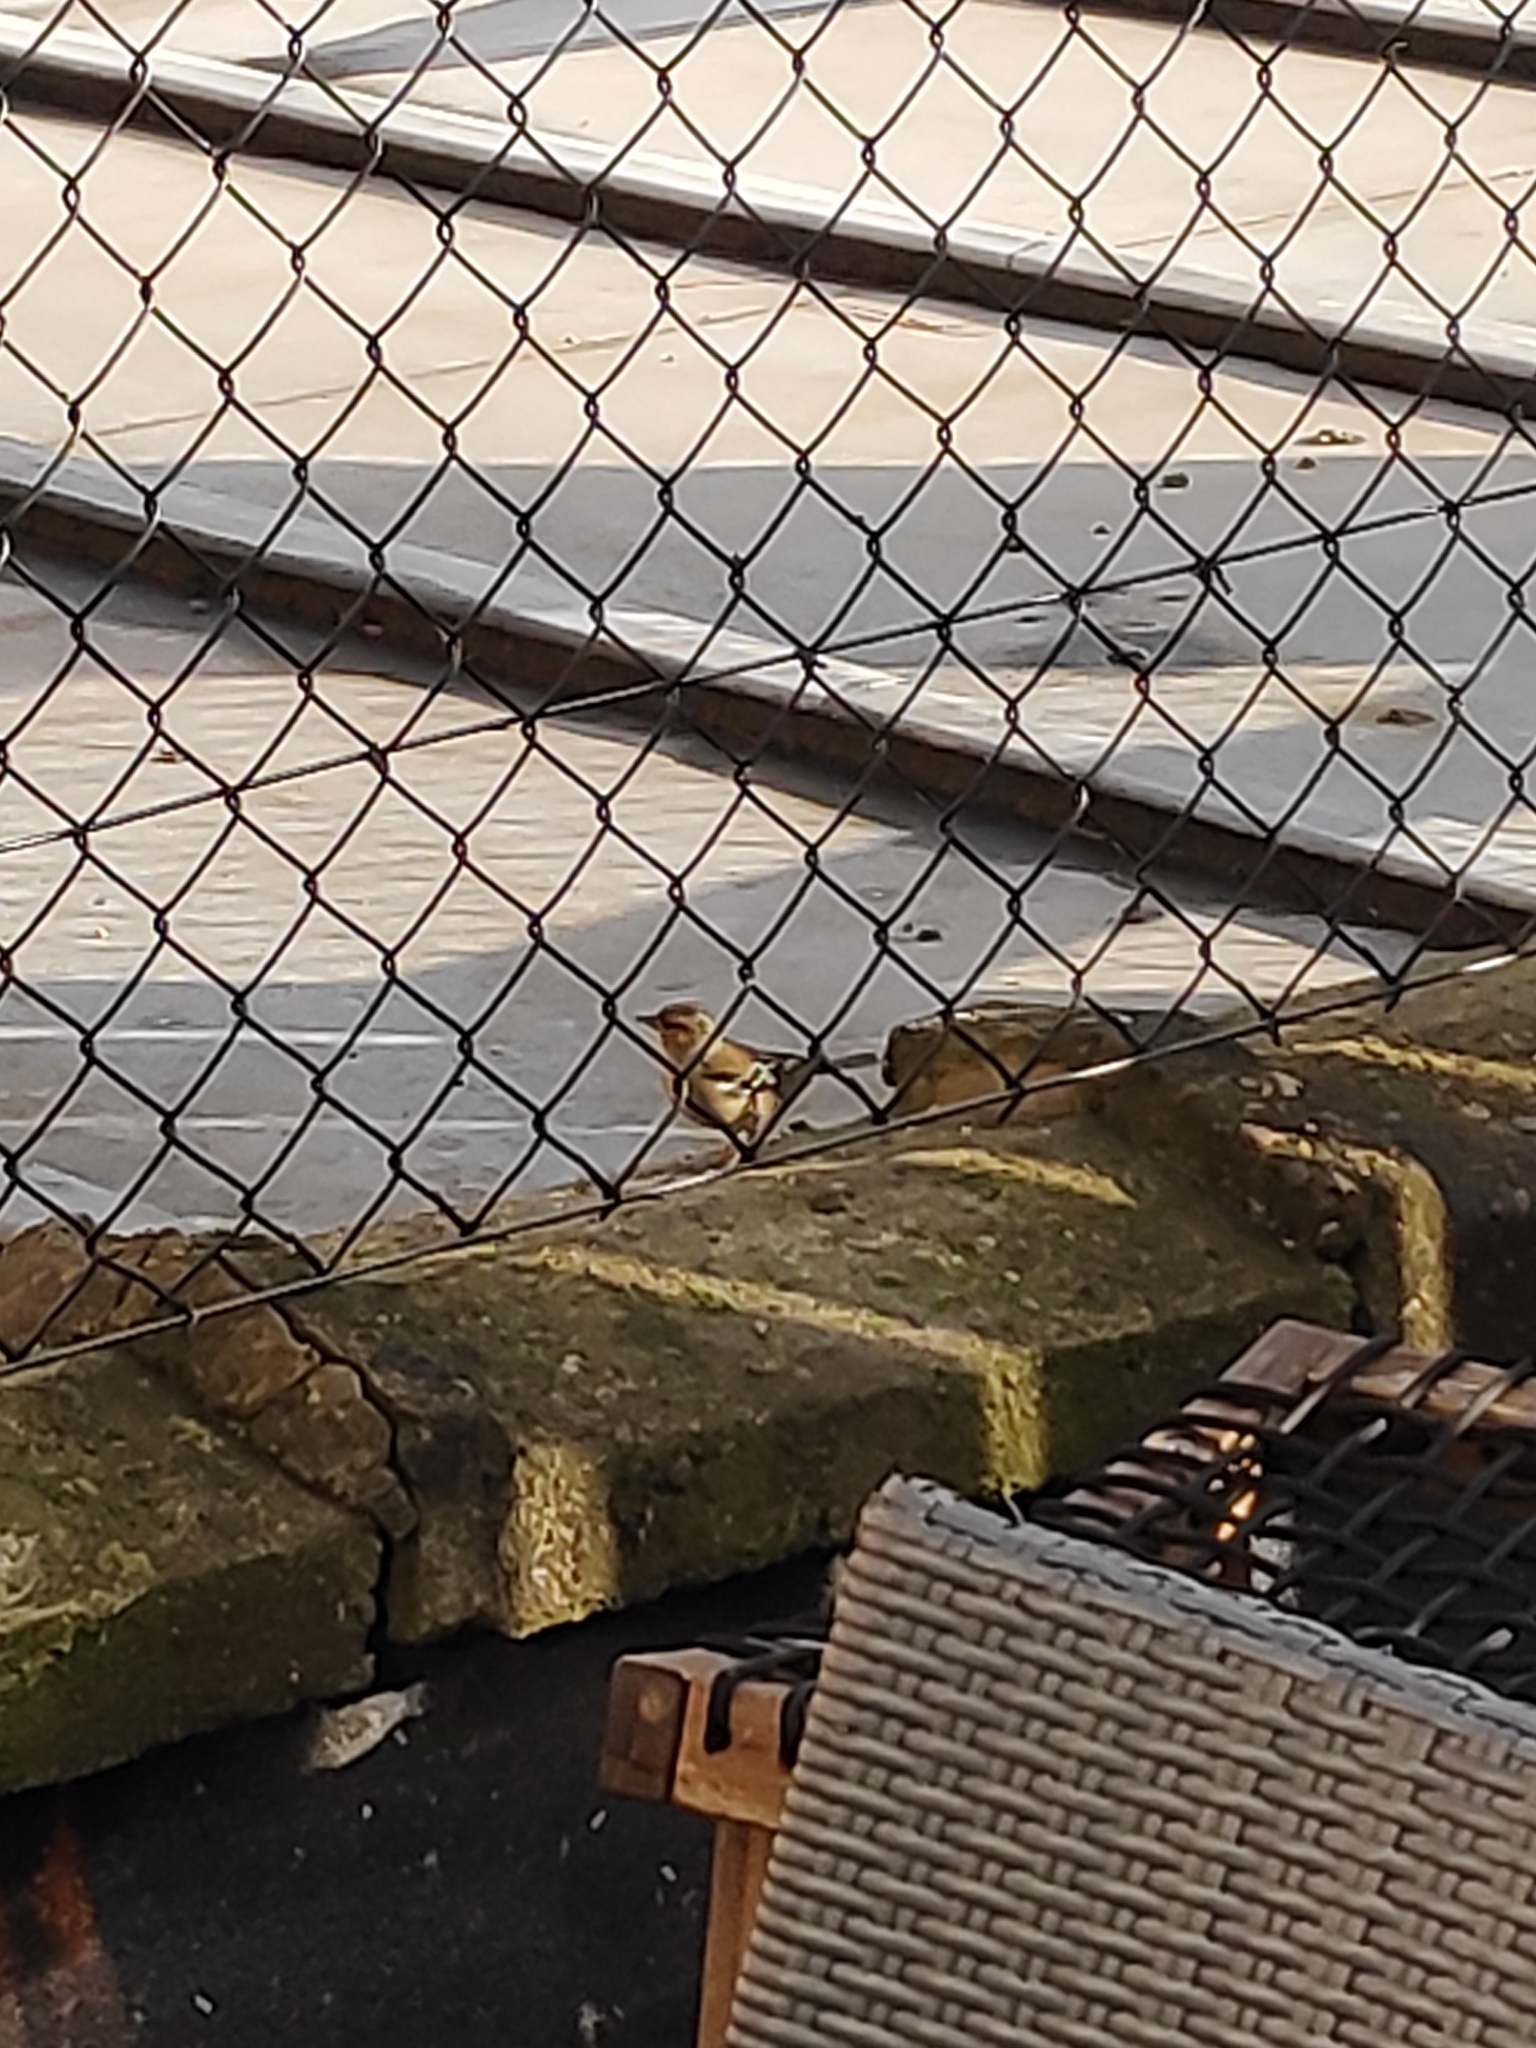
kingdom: Animalia
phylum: Chordata
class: Aves
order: Passeriformes
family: Fringillidae
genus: Fringilla
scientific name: Fringilla coelebs
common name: Common chaffinch
